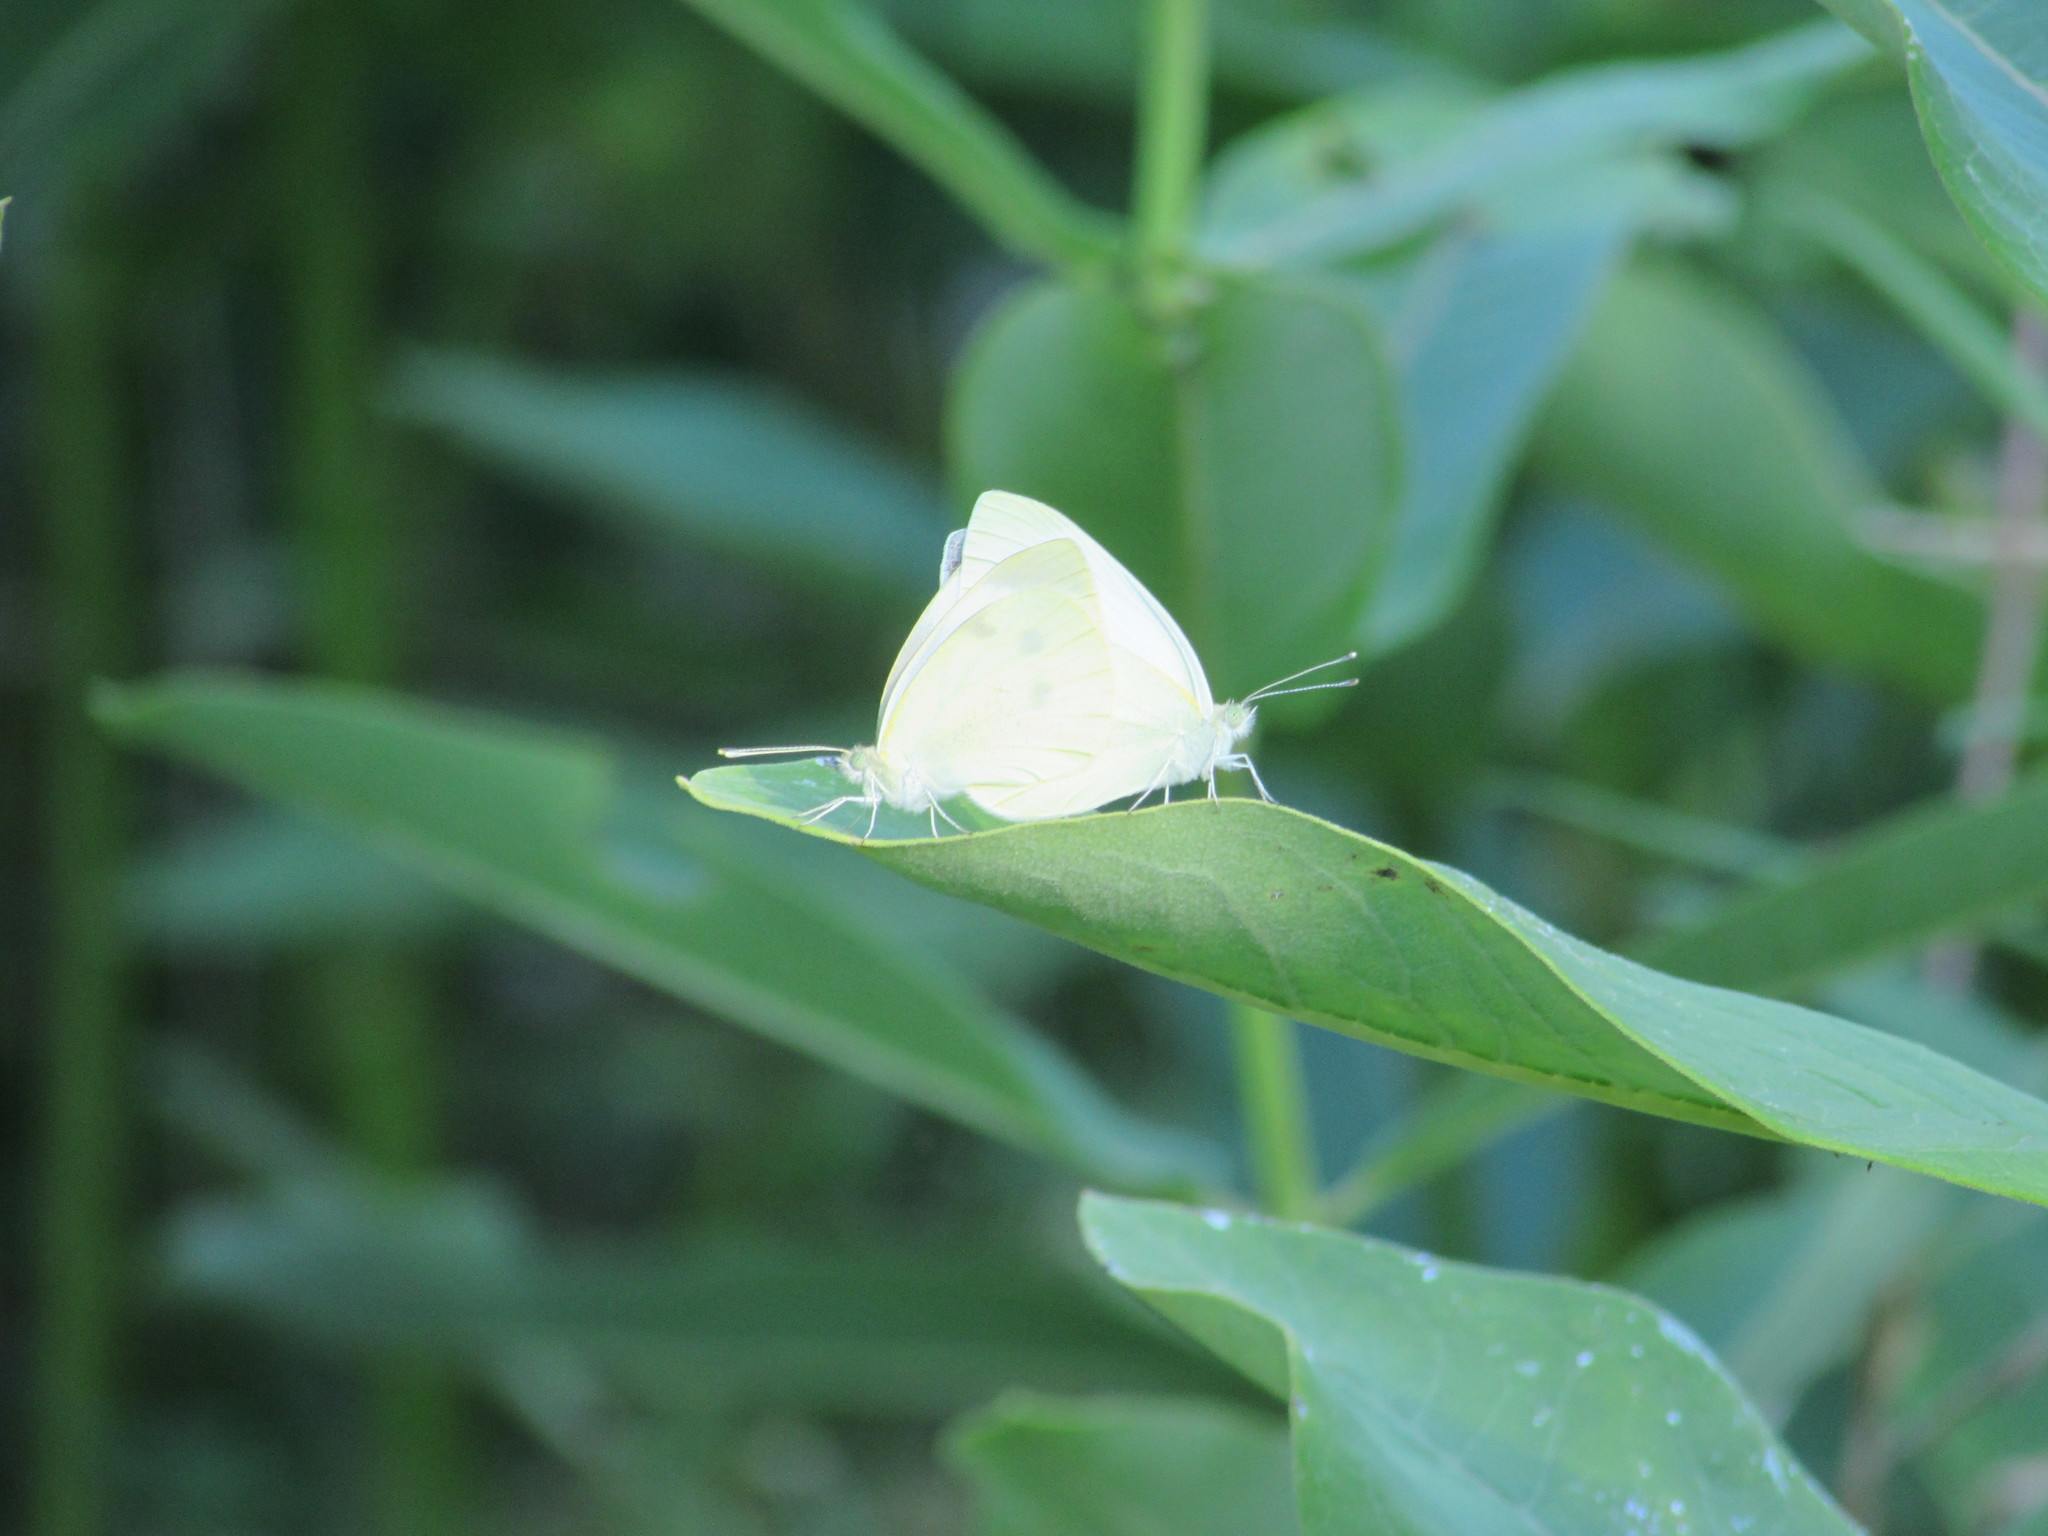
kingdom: Animalia
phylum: Arthropoda
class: Insecta
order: Lepidoptera
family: Pieridae
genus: Pieris
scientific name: Pieris rapae
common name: Small white
